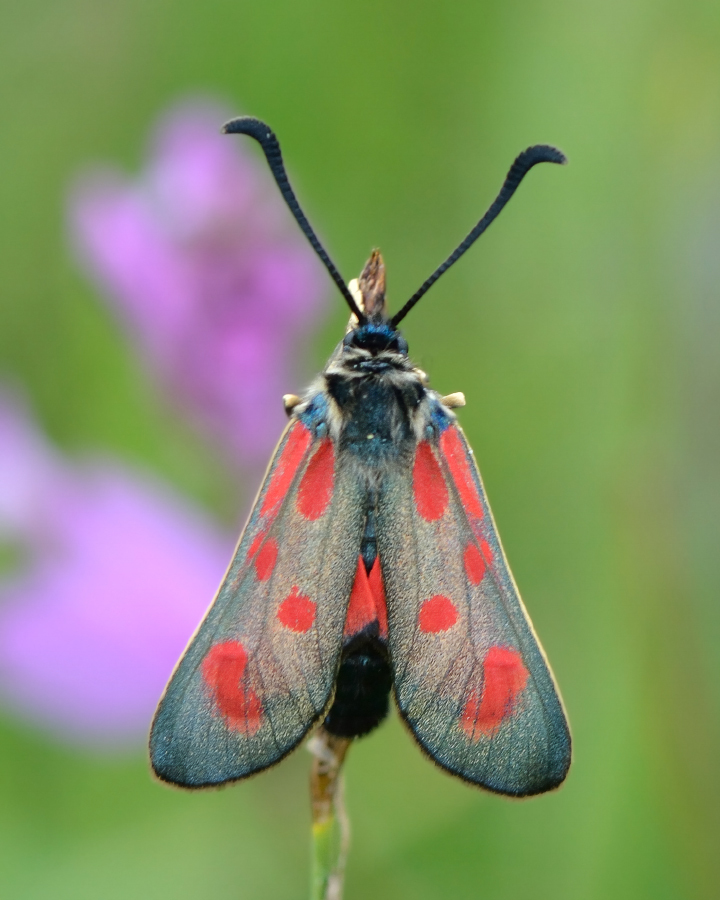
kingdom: Animalia
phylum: Arthropoda
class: Insecta
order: Lepidoptera
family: Zygaenidae
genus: Zygaena
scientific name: Zygaena loti
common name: Slender scotch burnet
